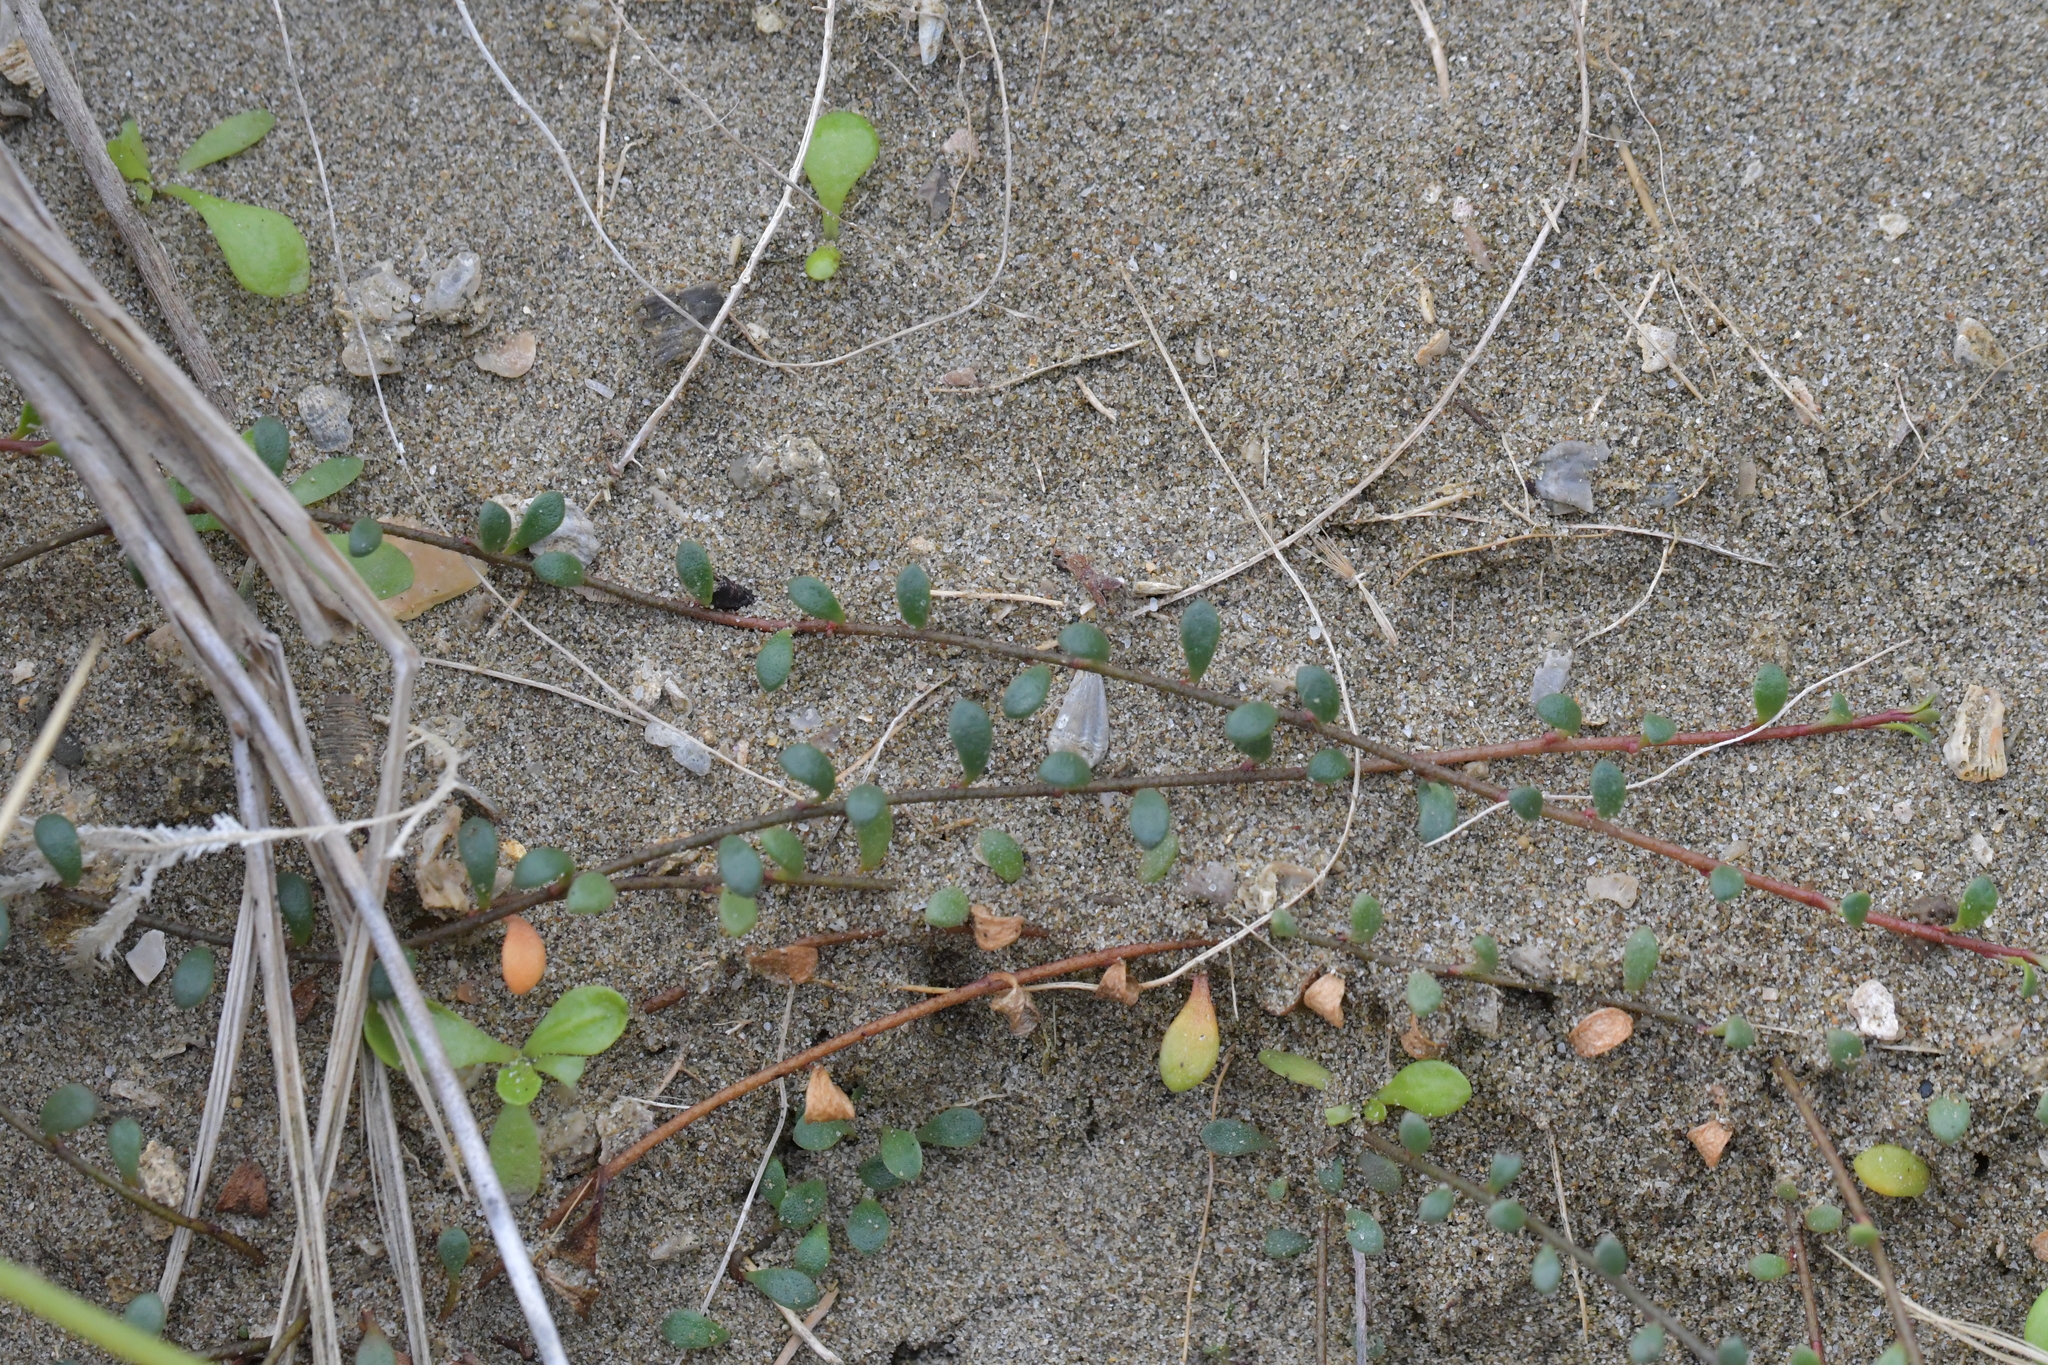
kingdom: Plantae
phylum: Tracheophyta
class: Magnoliopsida
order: Ericales
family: Primulaceae
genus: Samolus
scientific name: Samolus repens
